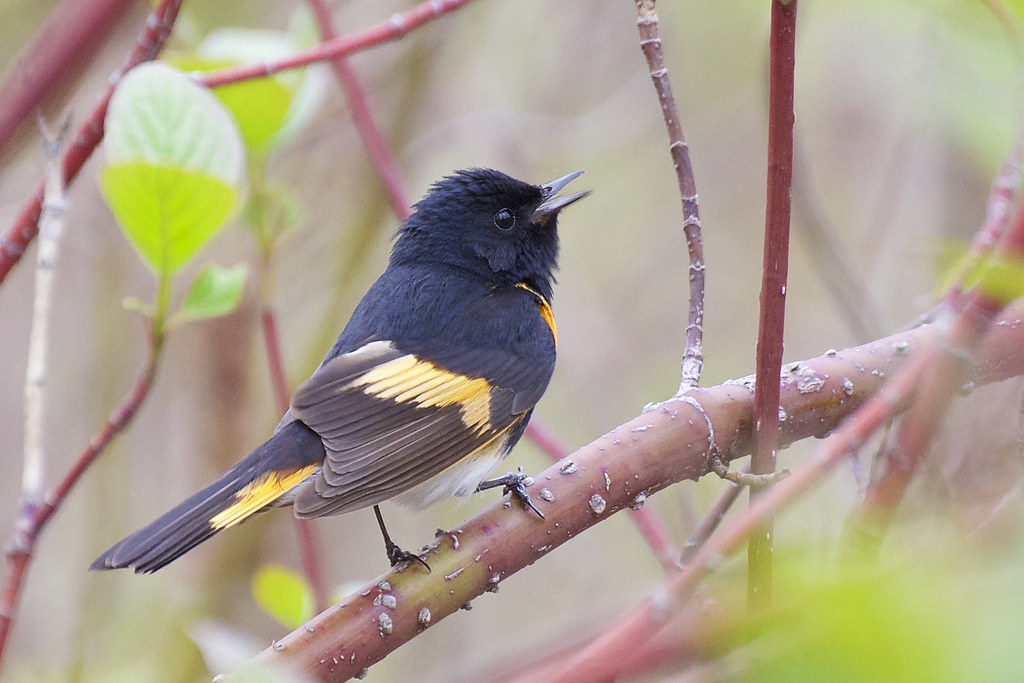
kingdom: Animalia
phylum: Chordata
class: Aves
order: Passeriformes
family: Parulidae
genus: Setophaga
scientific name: Setophaga ruticilla
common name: American redstart
